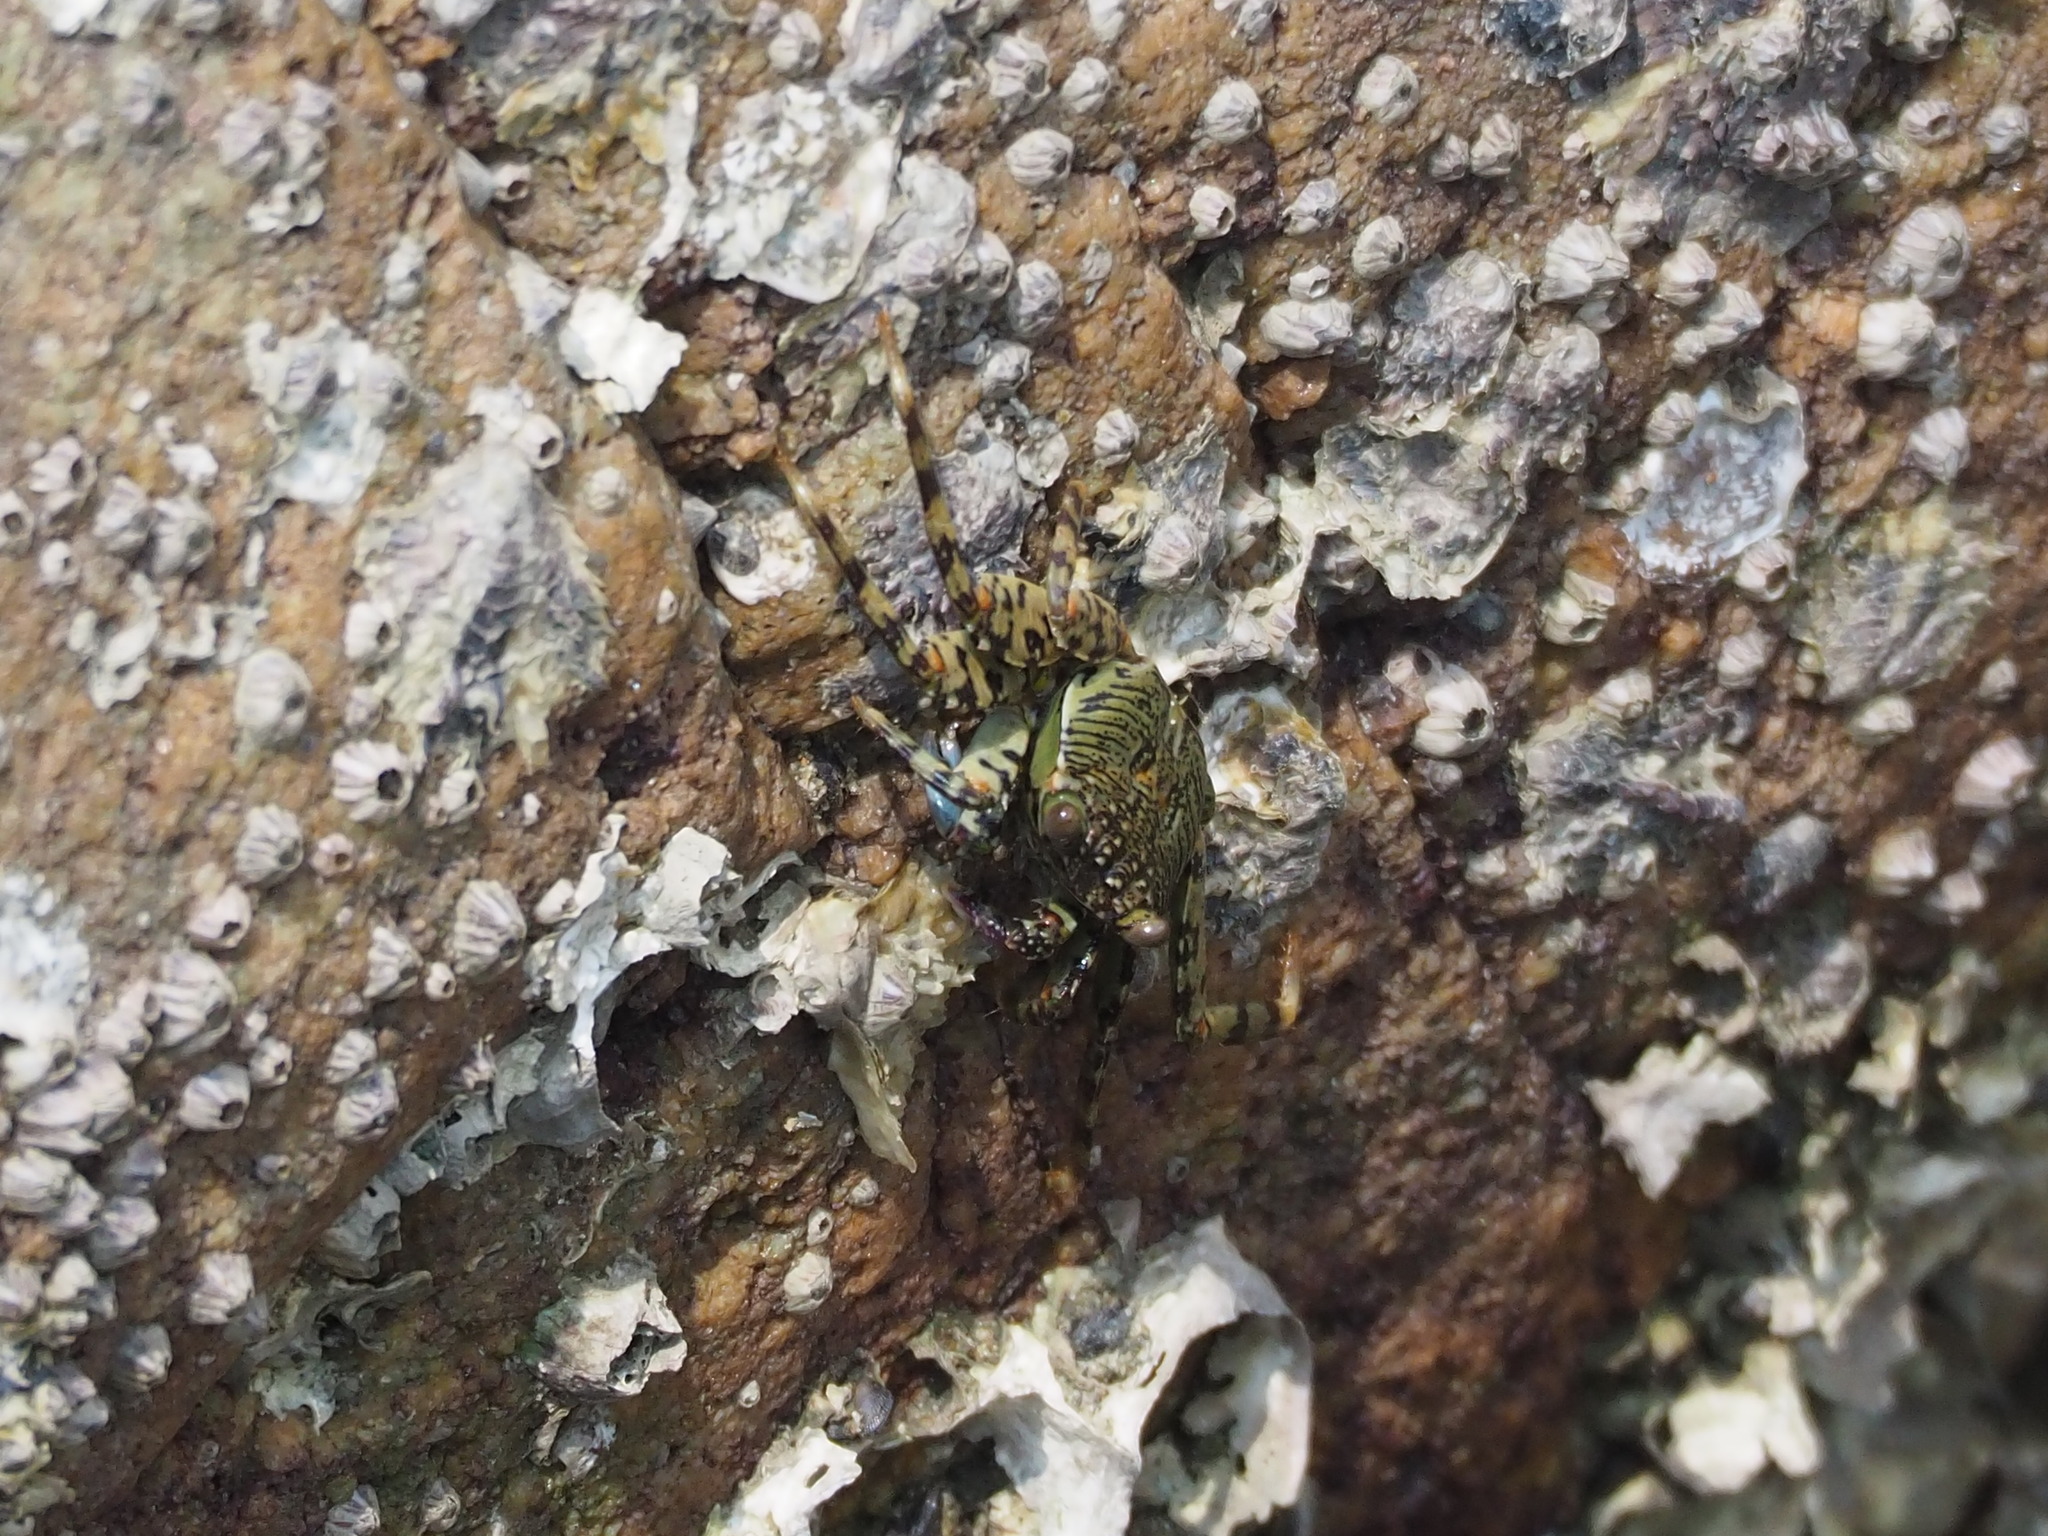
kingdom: Animalia
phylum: Arthropoda
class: Malacostraca
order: Decapoda
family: Grapsidae
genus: Grapsus
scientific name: Grapsus albolineatus
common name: Mottled lightfoot crab
